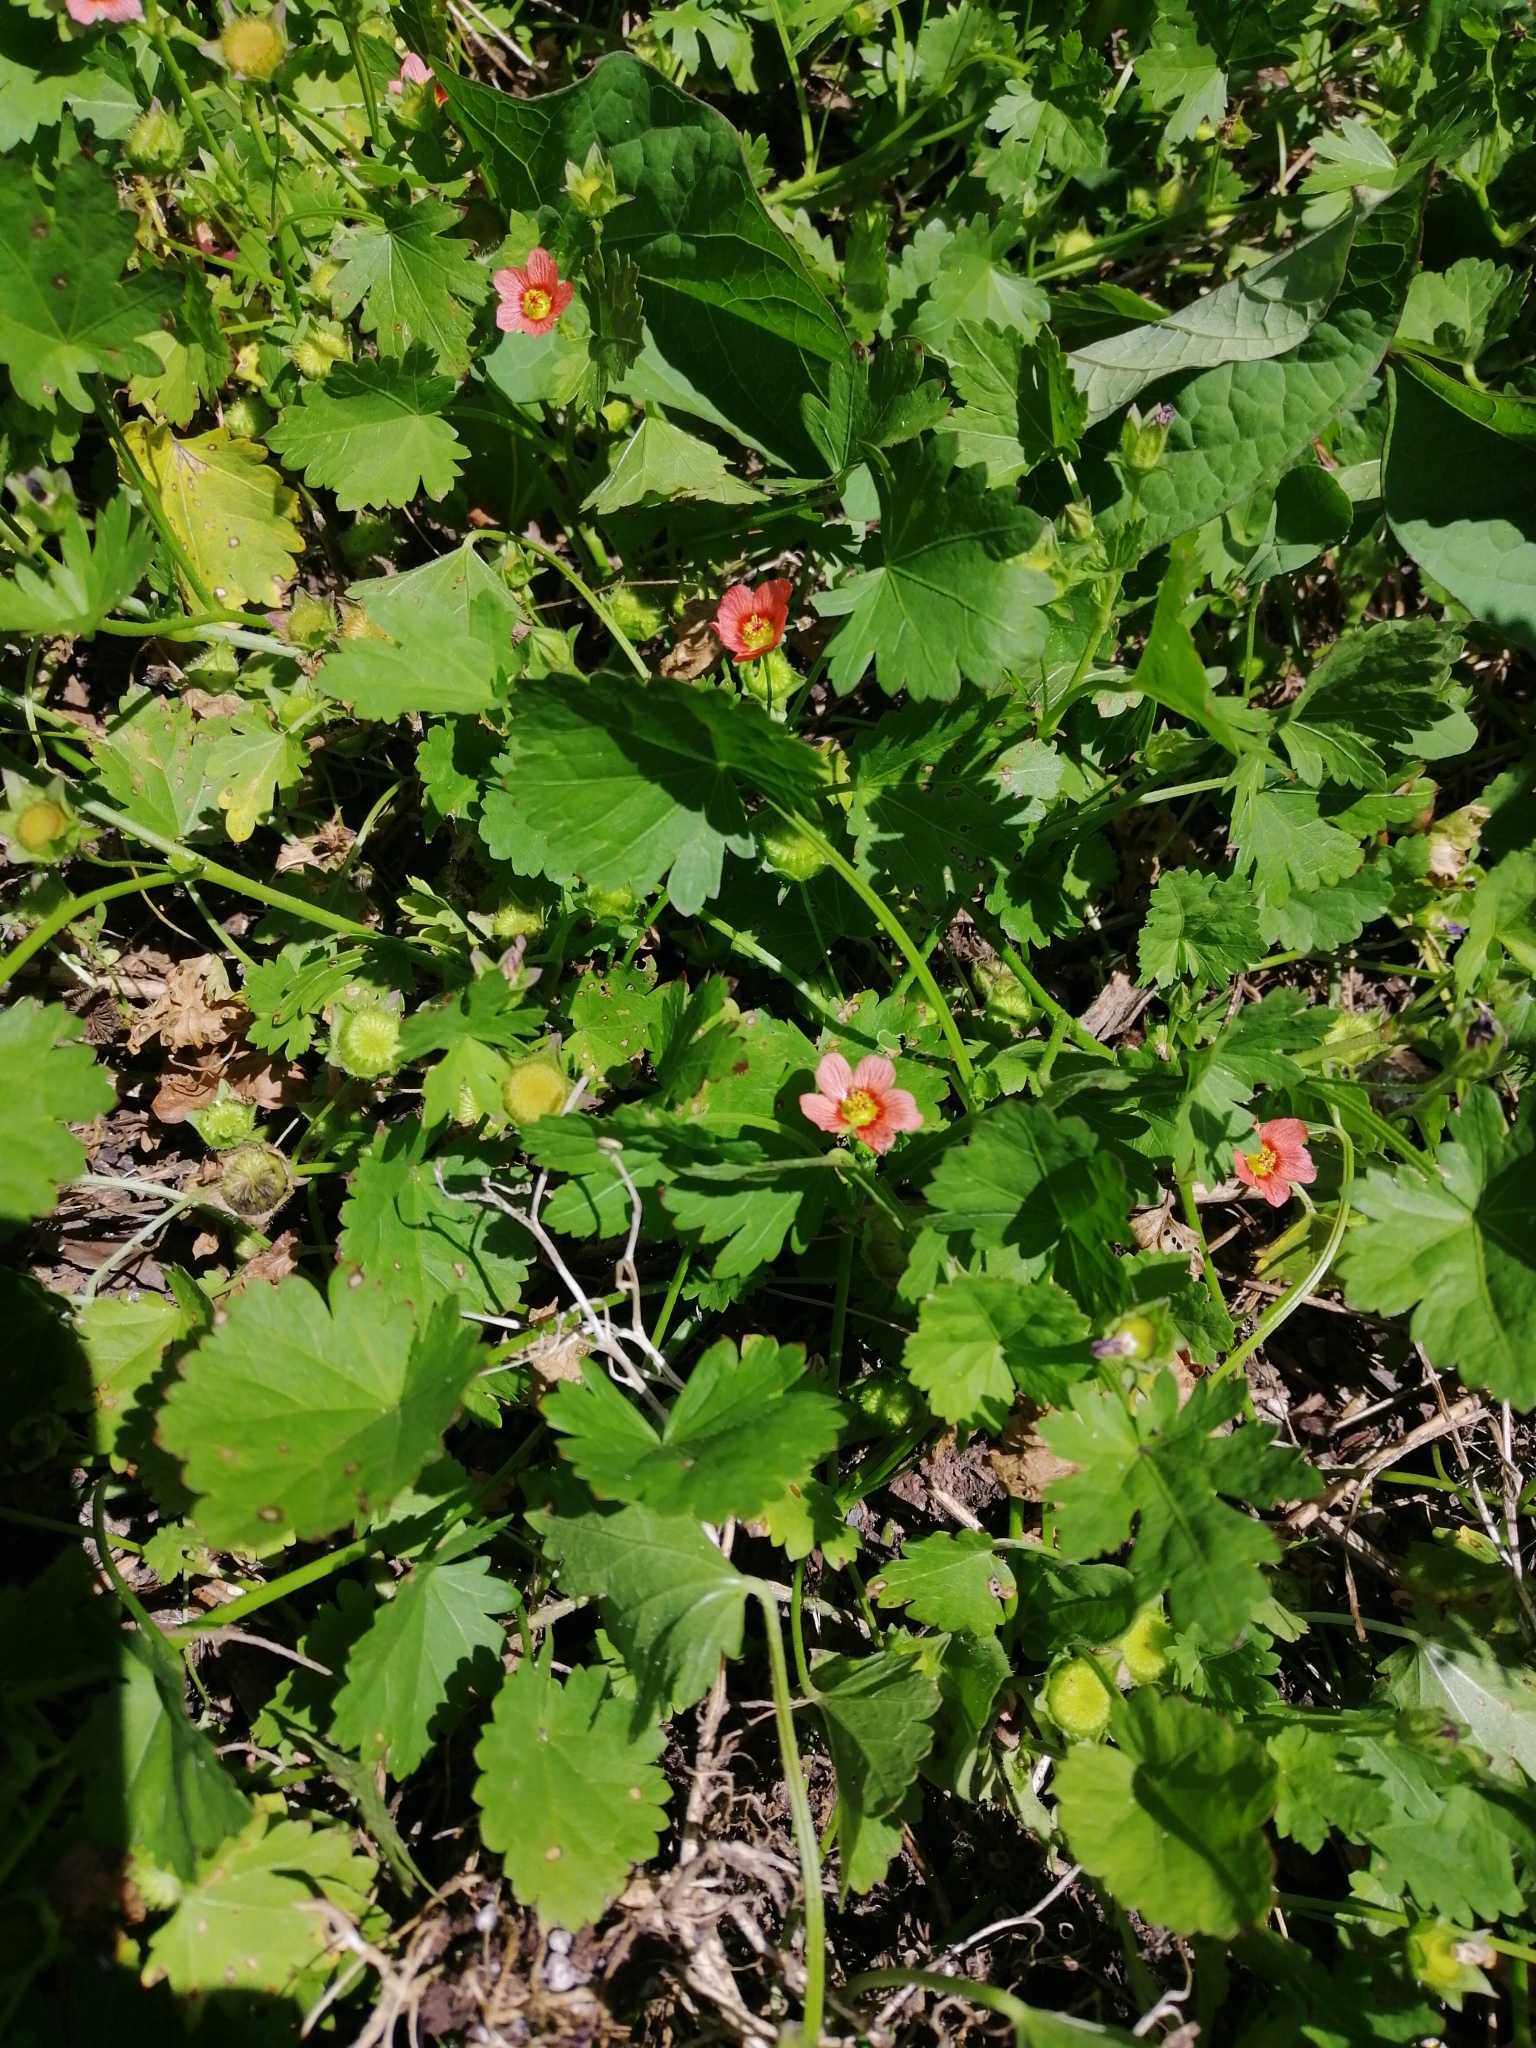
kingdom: Plantae
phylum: Tracheophyta
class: Magnoliopsida
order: Malvales
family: Malvaceae
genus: Modiola
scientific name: Modiola caroliniana
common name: Carolina bristlemallow
